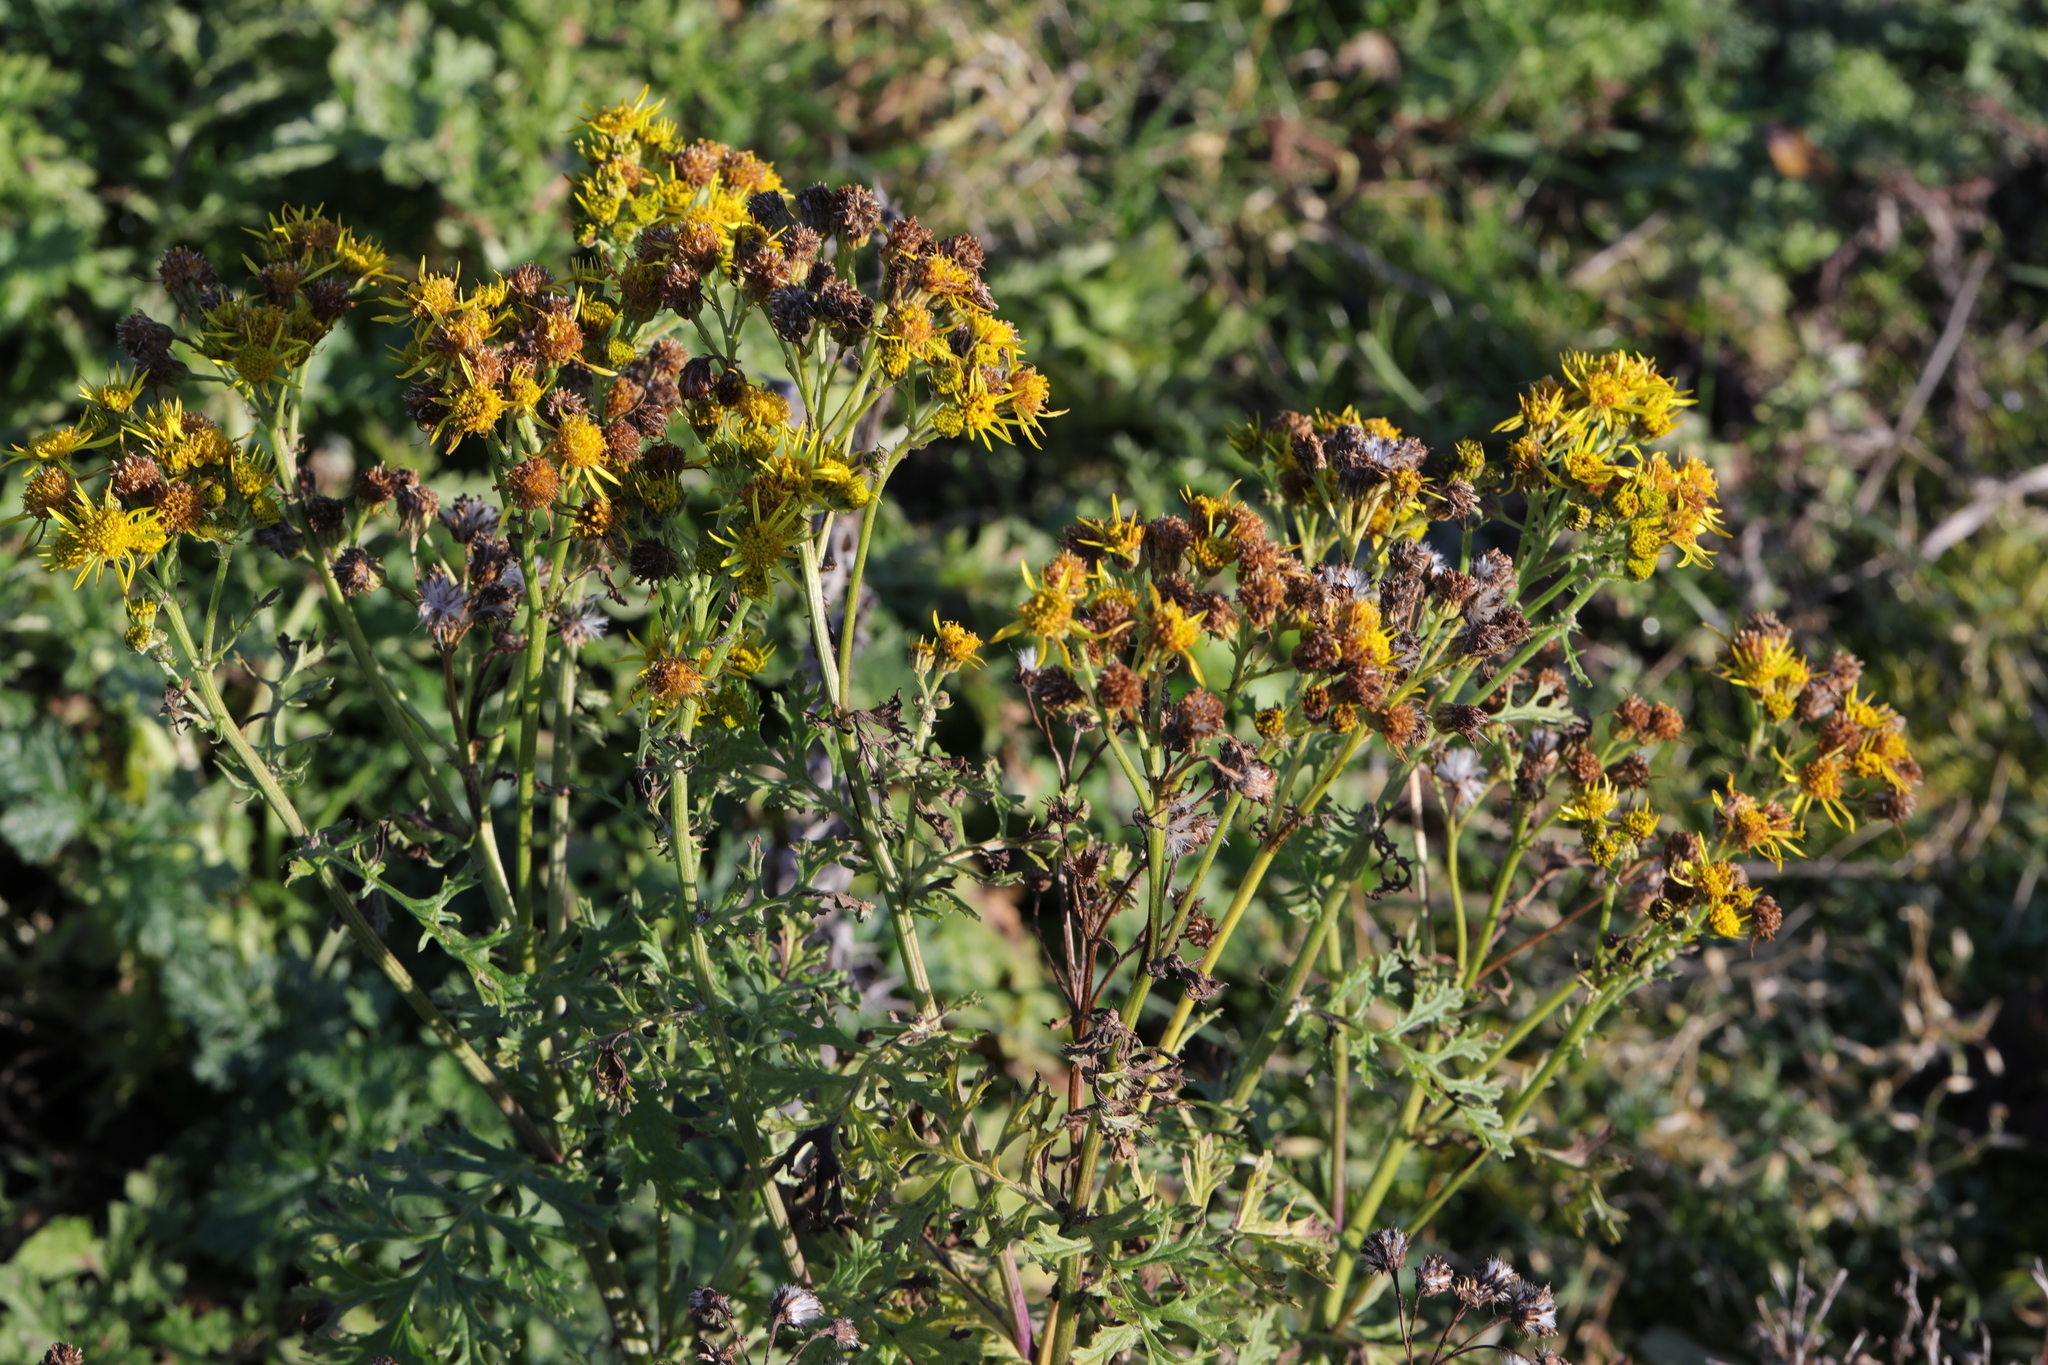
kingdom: Plantae
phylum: Tracheophyta
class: Magnoliopsida
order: Asterales
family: Asteraceae
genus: Jacobaea
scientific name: Jacobaea vulgaris
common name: Stinking willie
